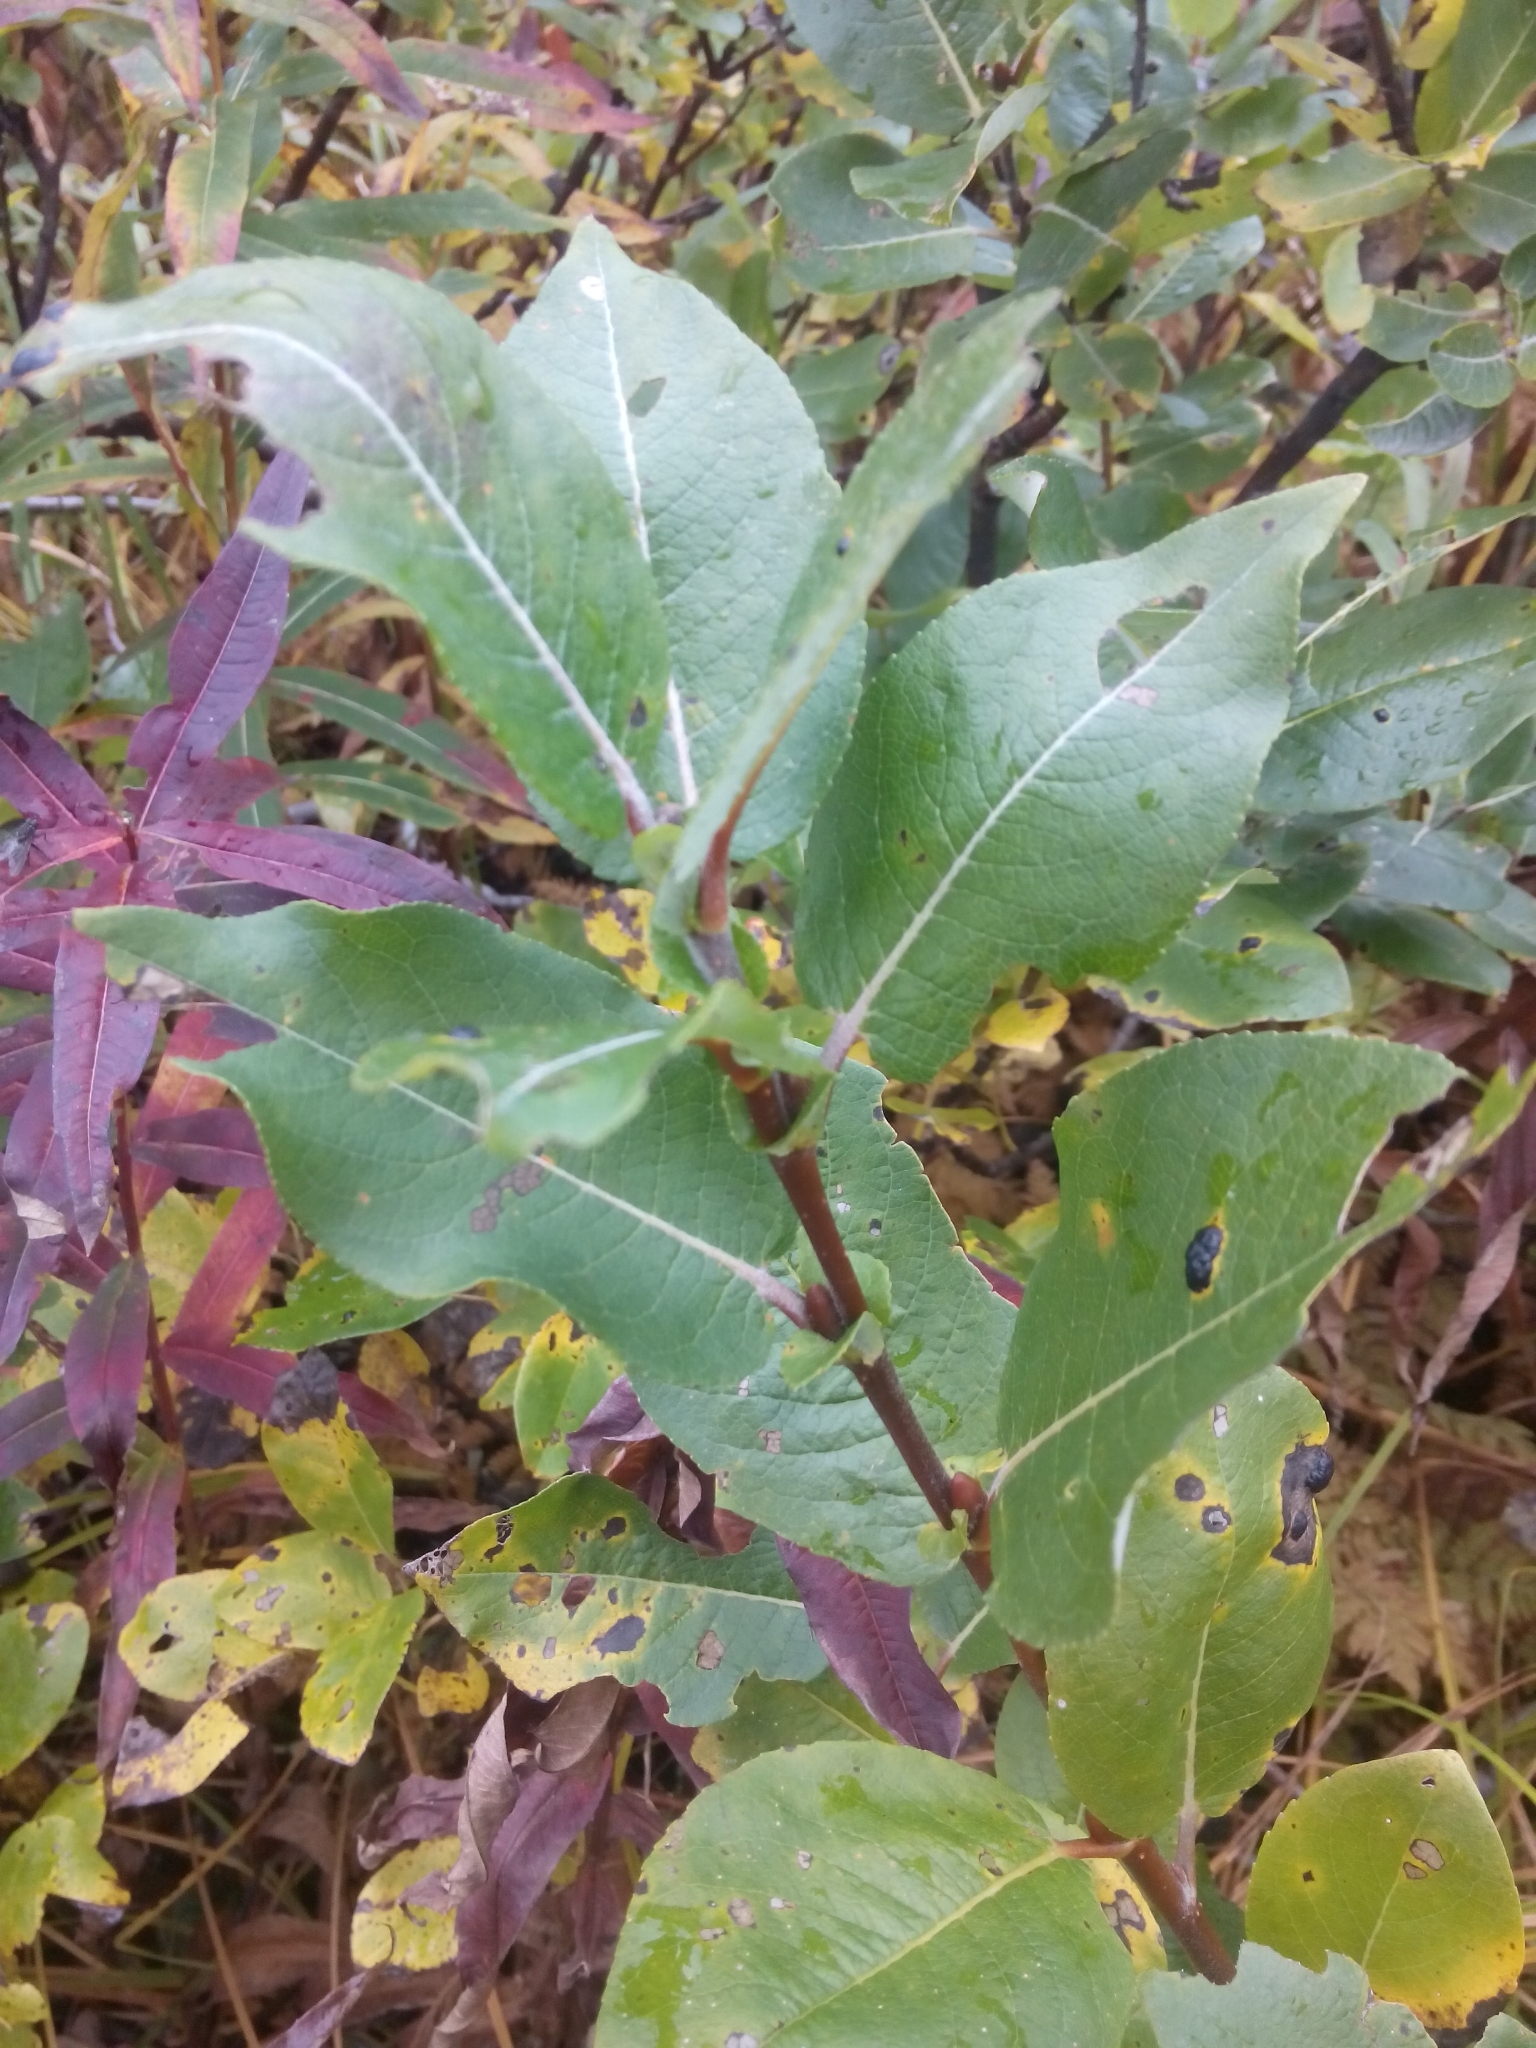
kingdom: Plantae
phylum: Tracheophyta
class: Magnoliopsida
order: Malpighiales
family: Salicaceae
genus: Salix
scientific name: Salix barclayi
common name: Mountain willow
